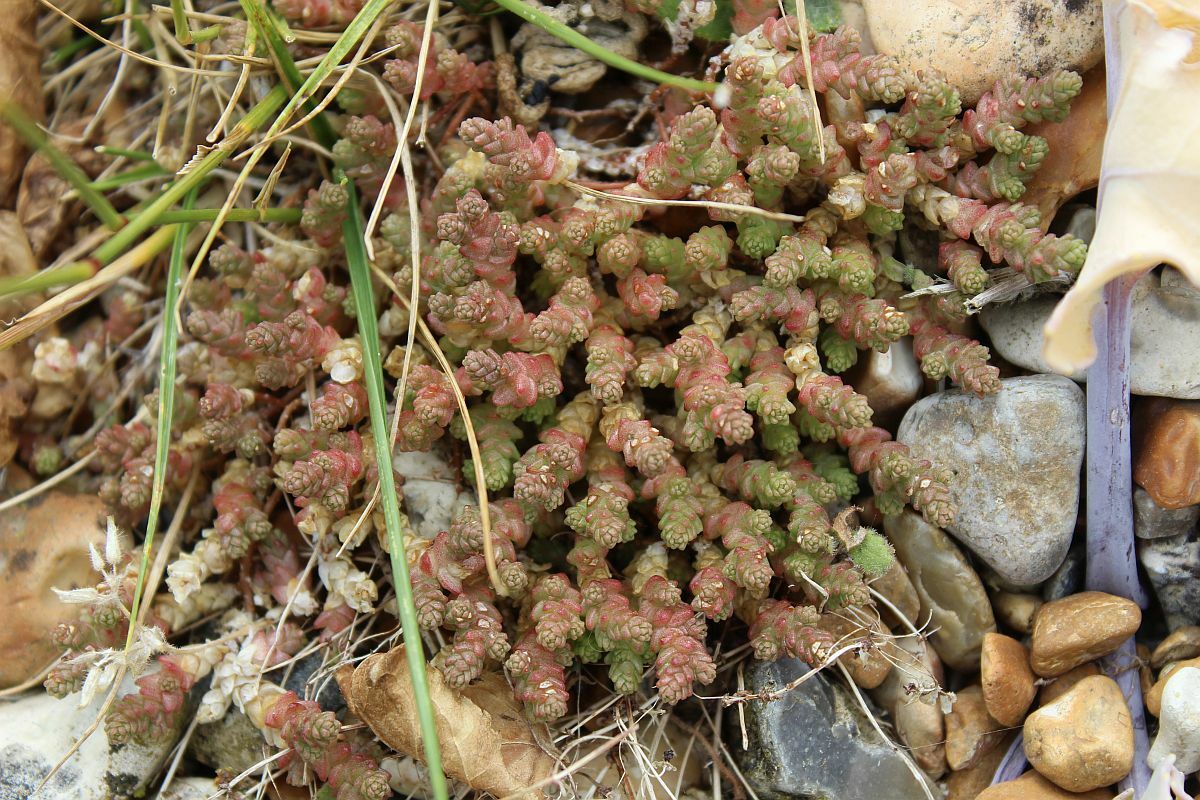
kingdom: Plantae
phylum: Tracheophyta
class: Magnoliopsida
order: Saxifragales
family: Crassulaceae
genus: Sedum
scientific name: Sedum acre
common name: Biting stonecrop
